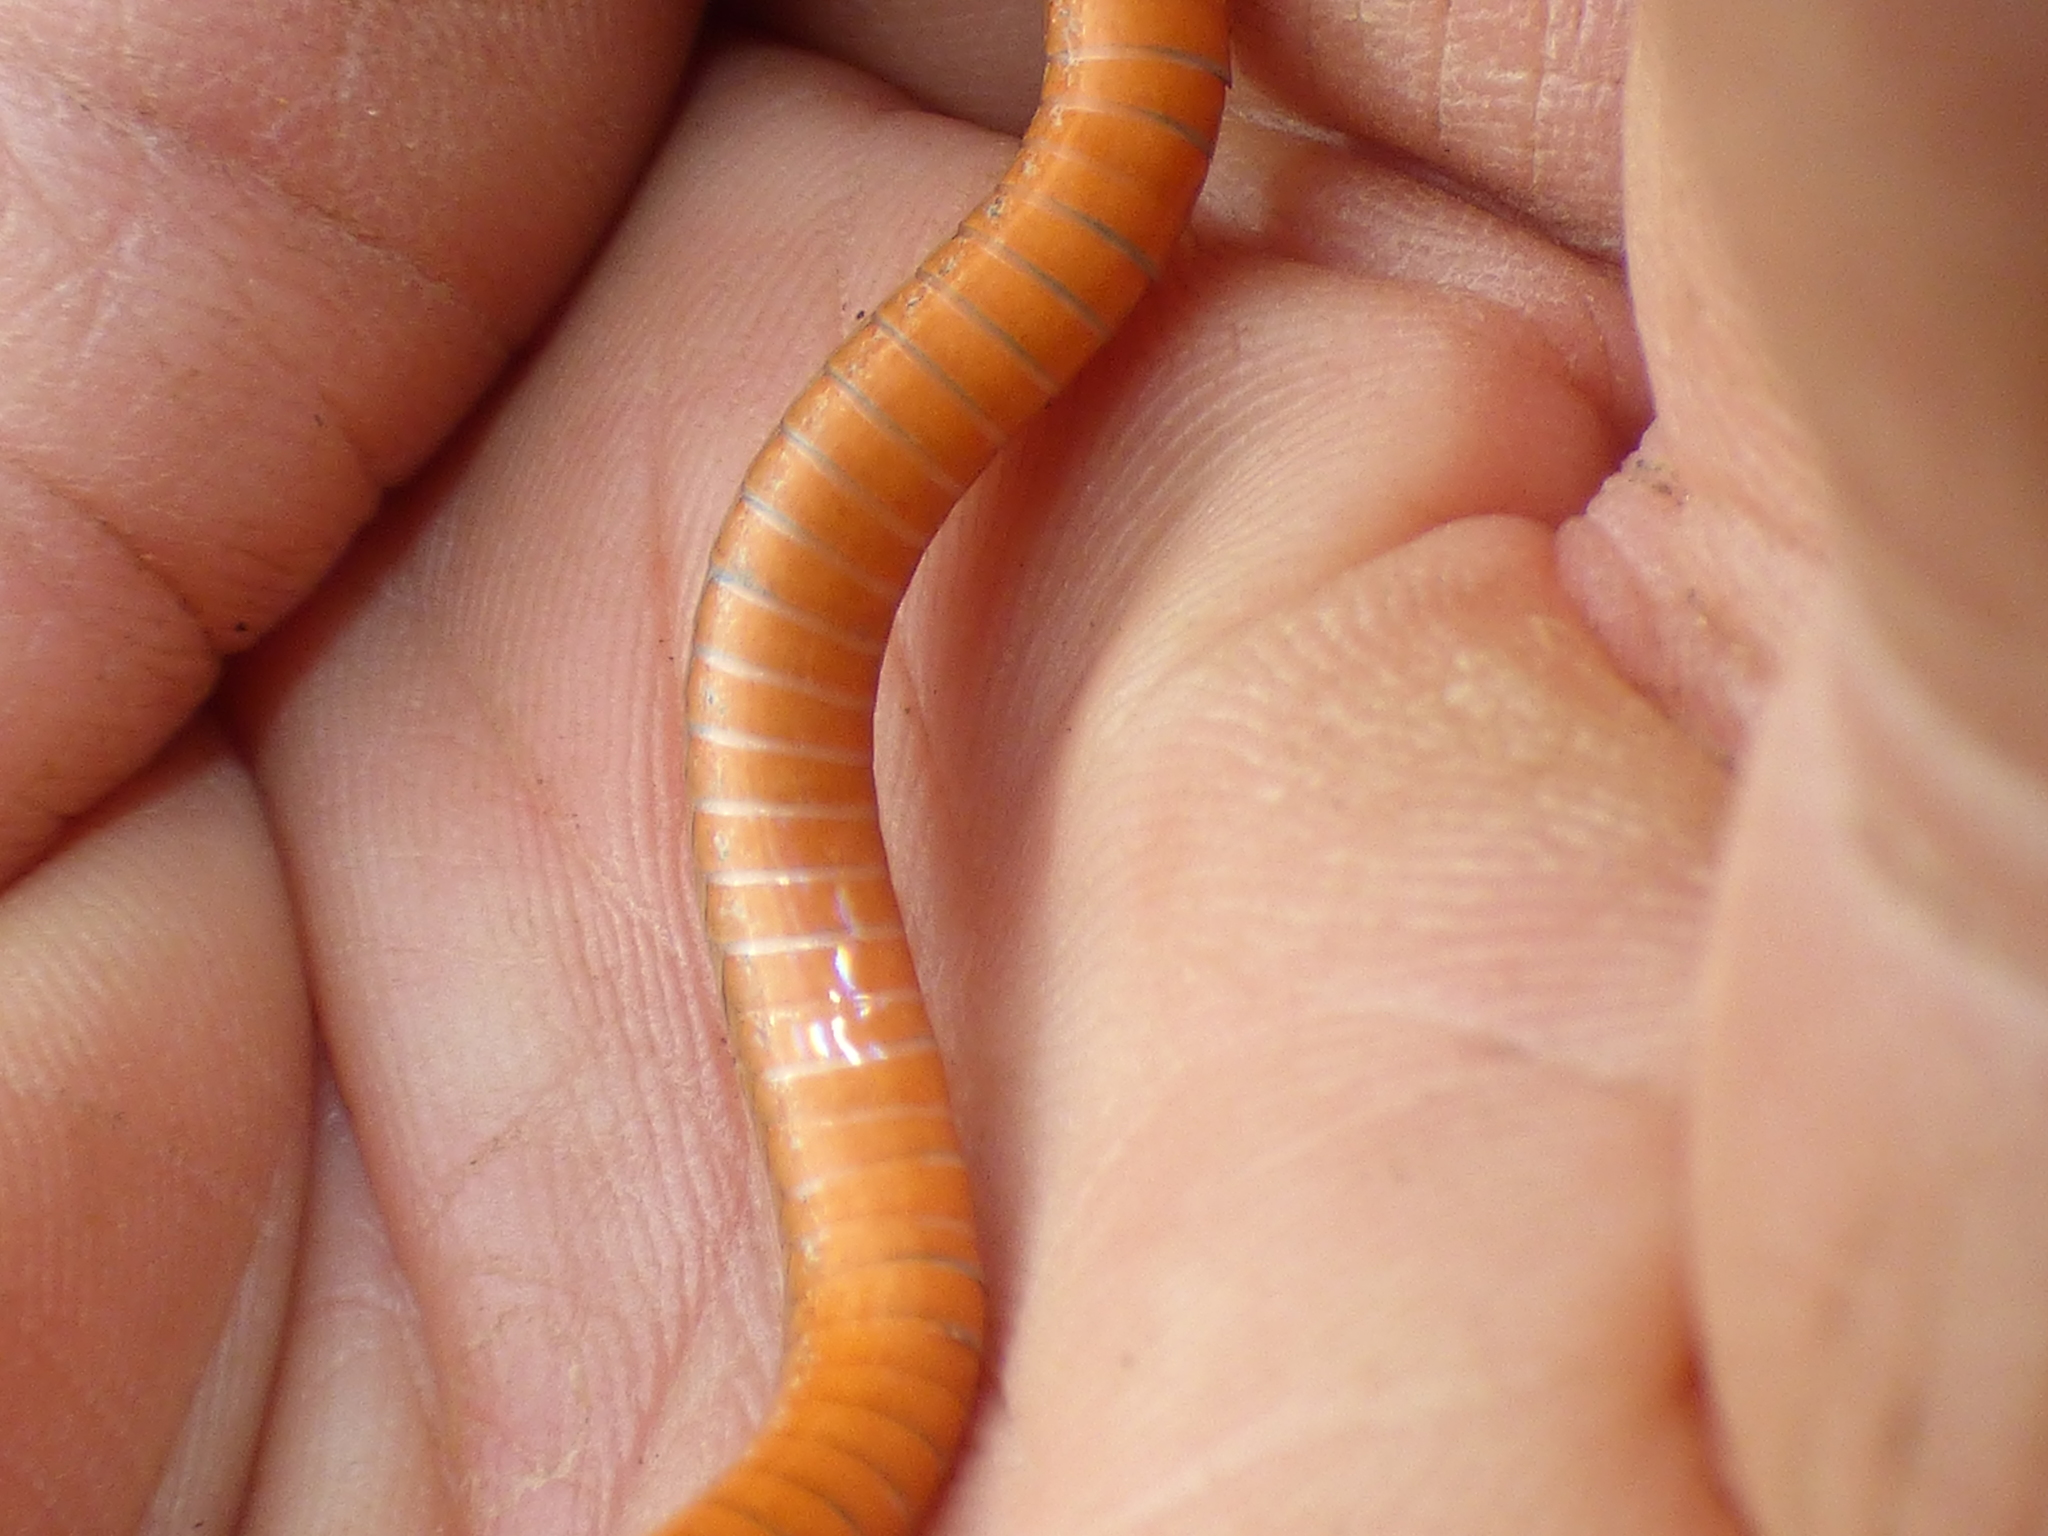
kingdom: Animalia
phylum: Chordata
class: Squamata
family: Colubridae
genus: Storeria
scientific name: Storeria occipitomaculata
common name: Redbelly snake
